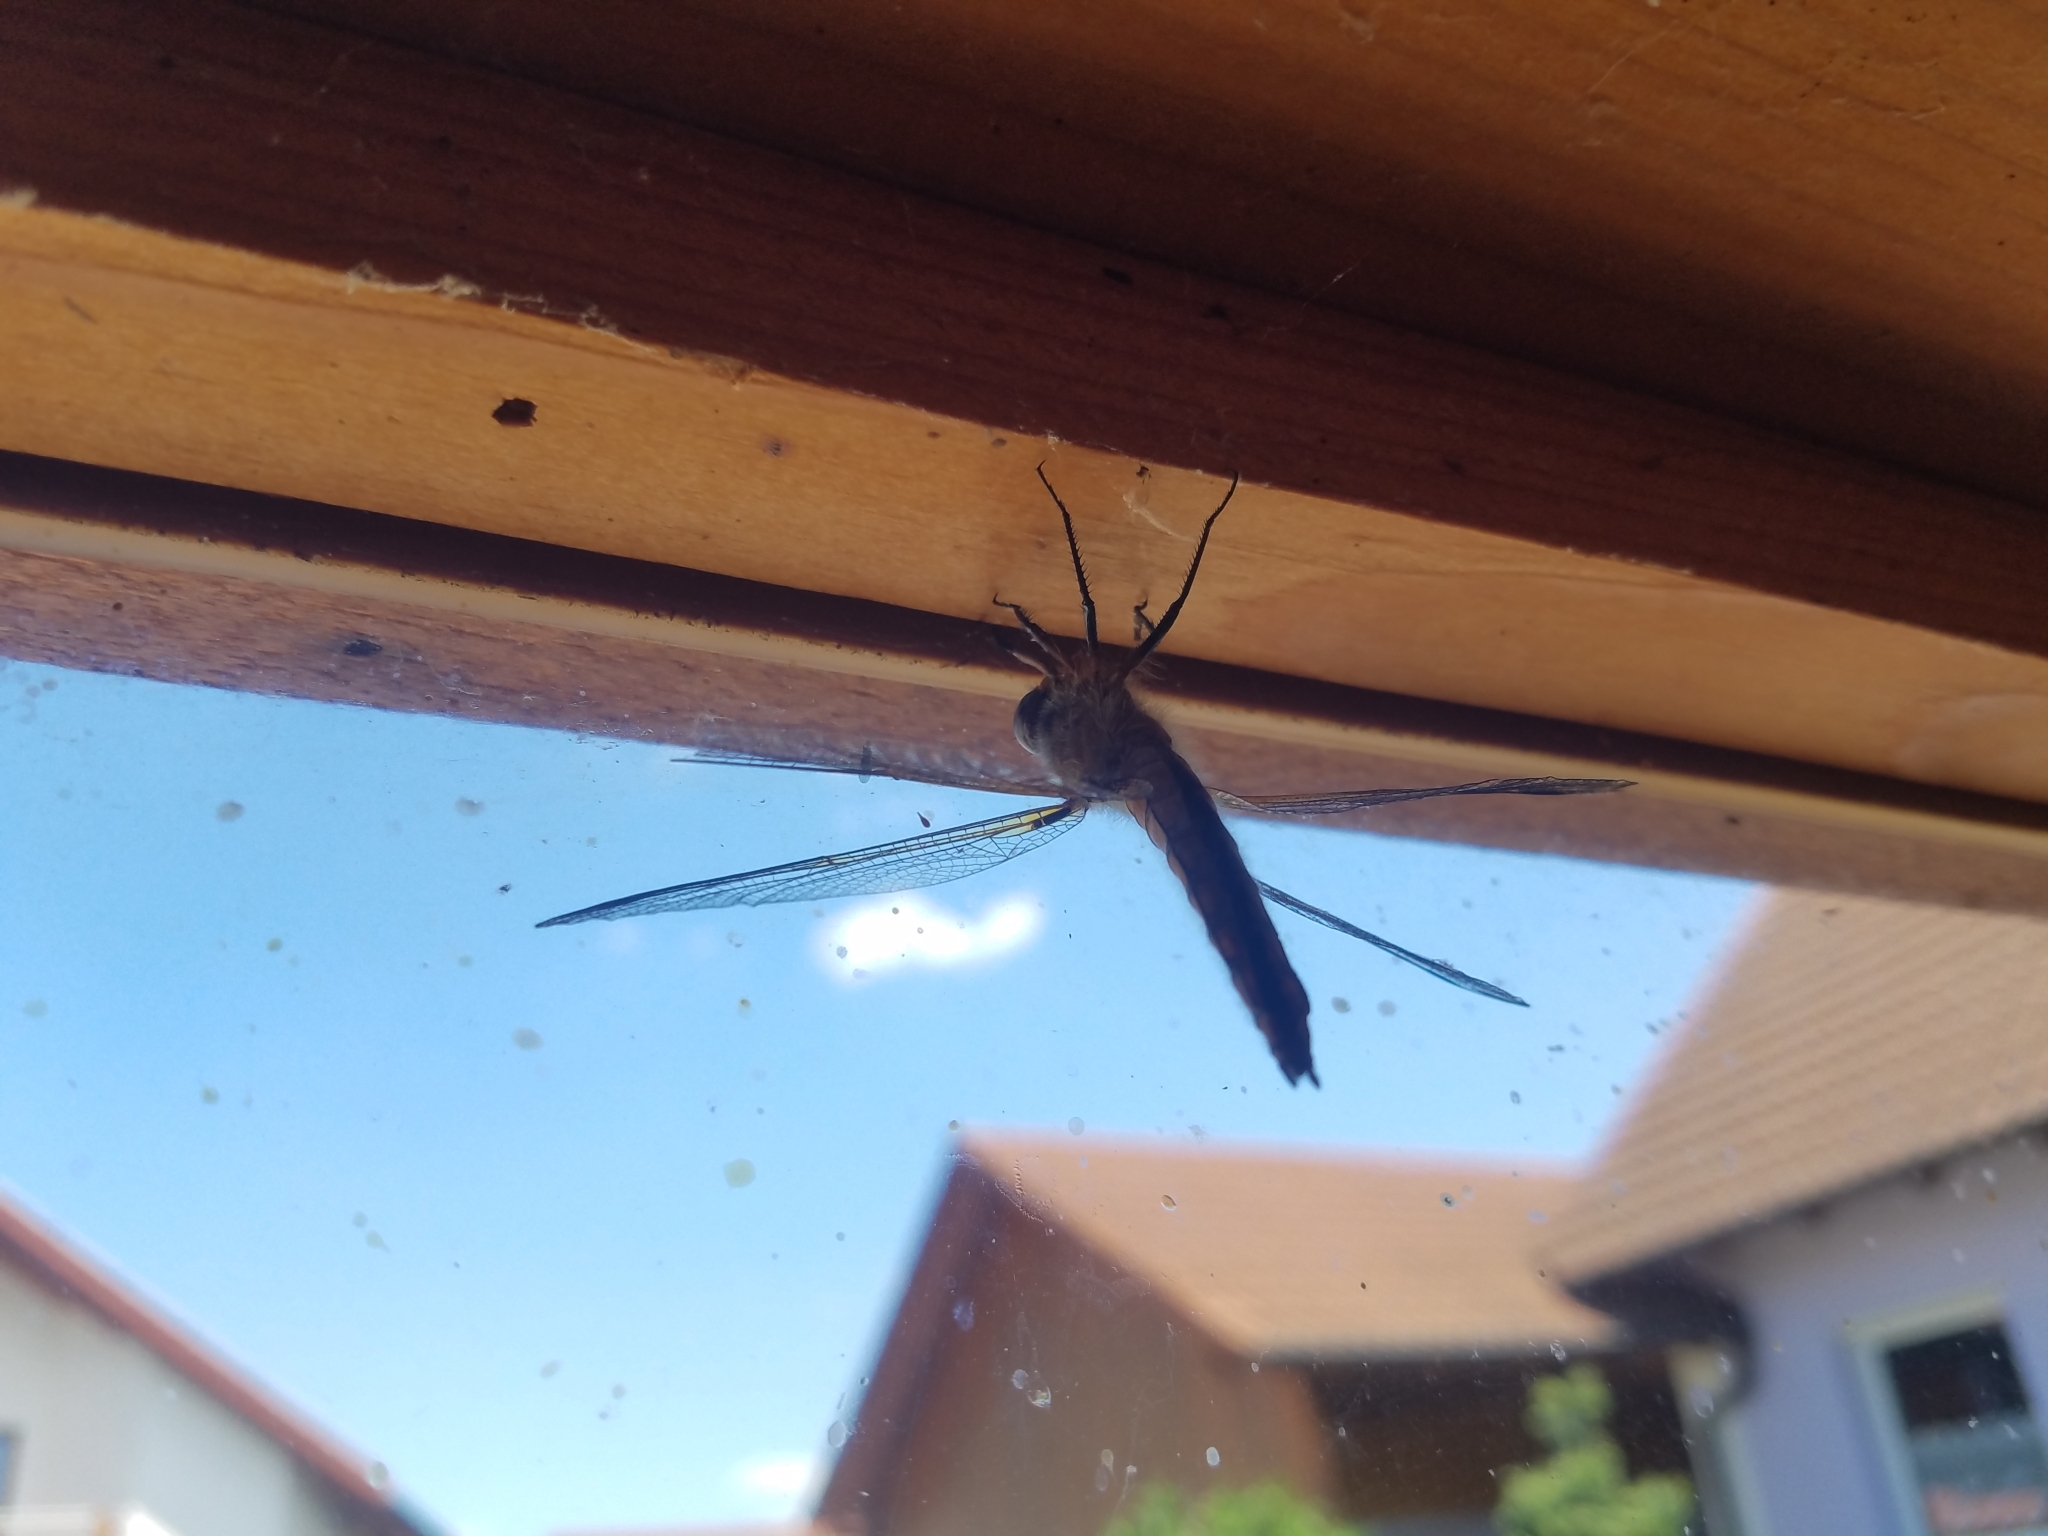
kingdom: Animalia
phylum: Arthropoda
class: Insecta
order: Odonata
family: Libellulidae
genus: Libellula
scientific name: Libellula fulva
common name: Blue chaser
